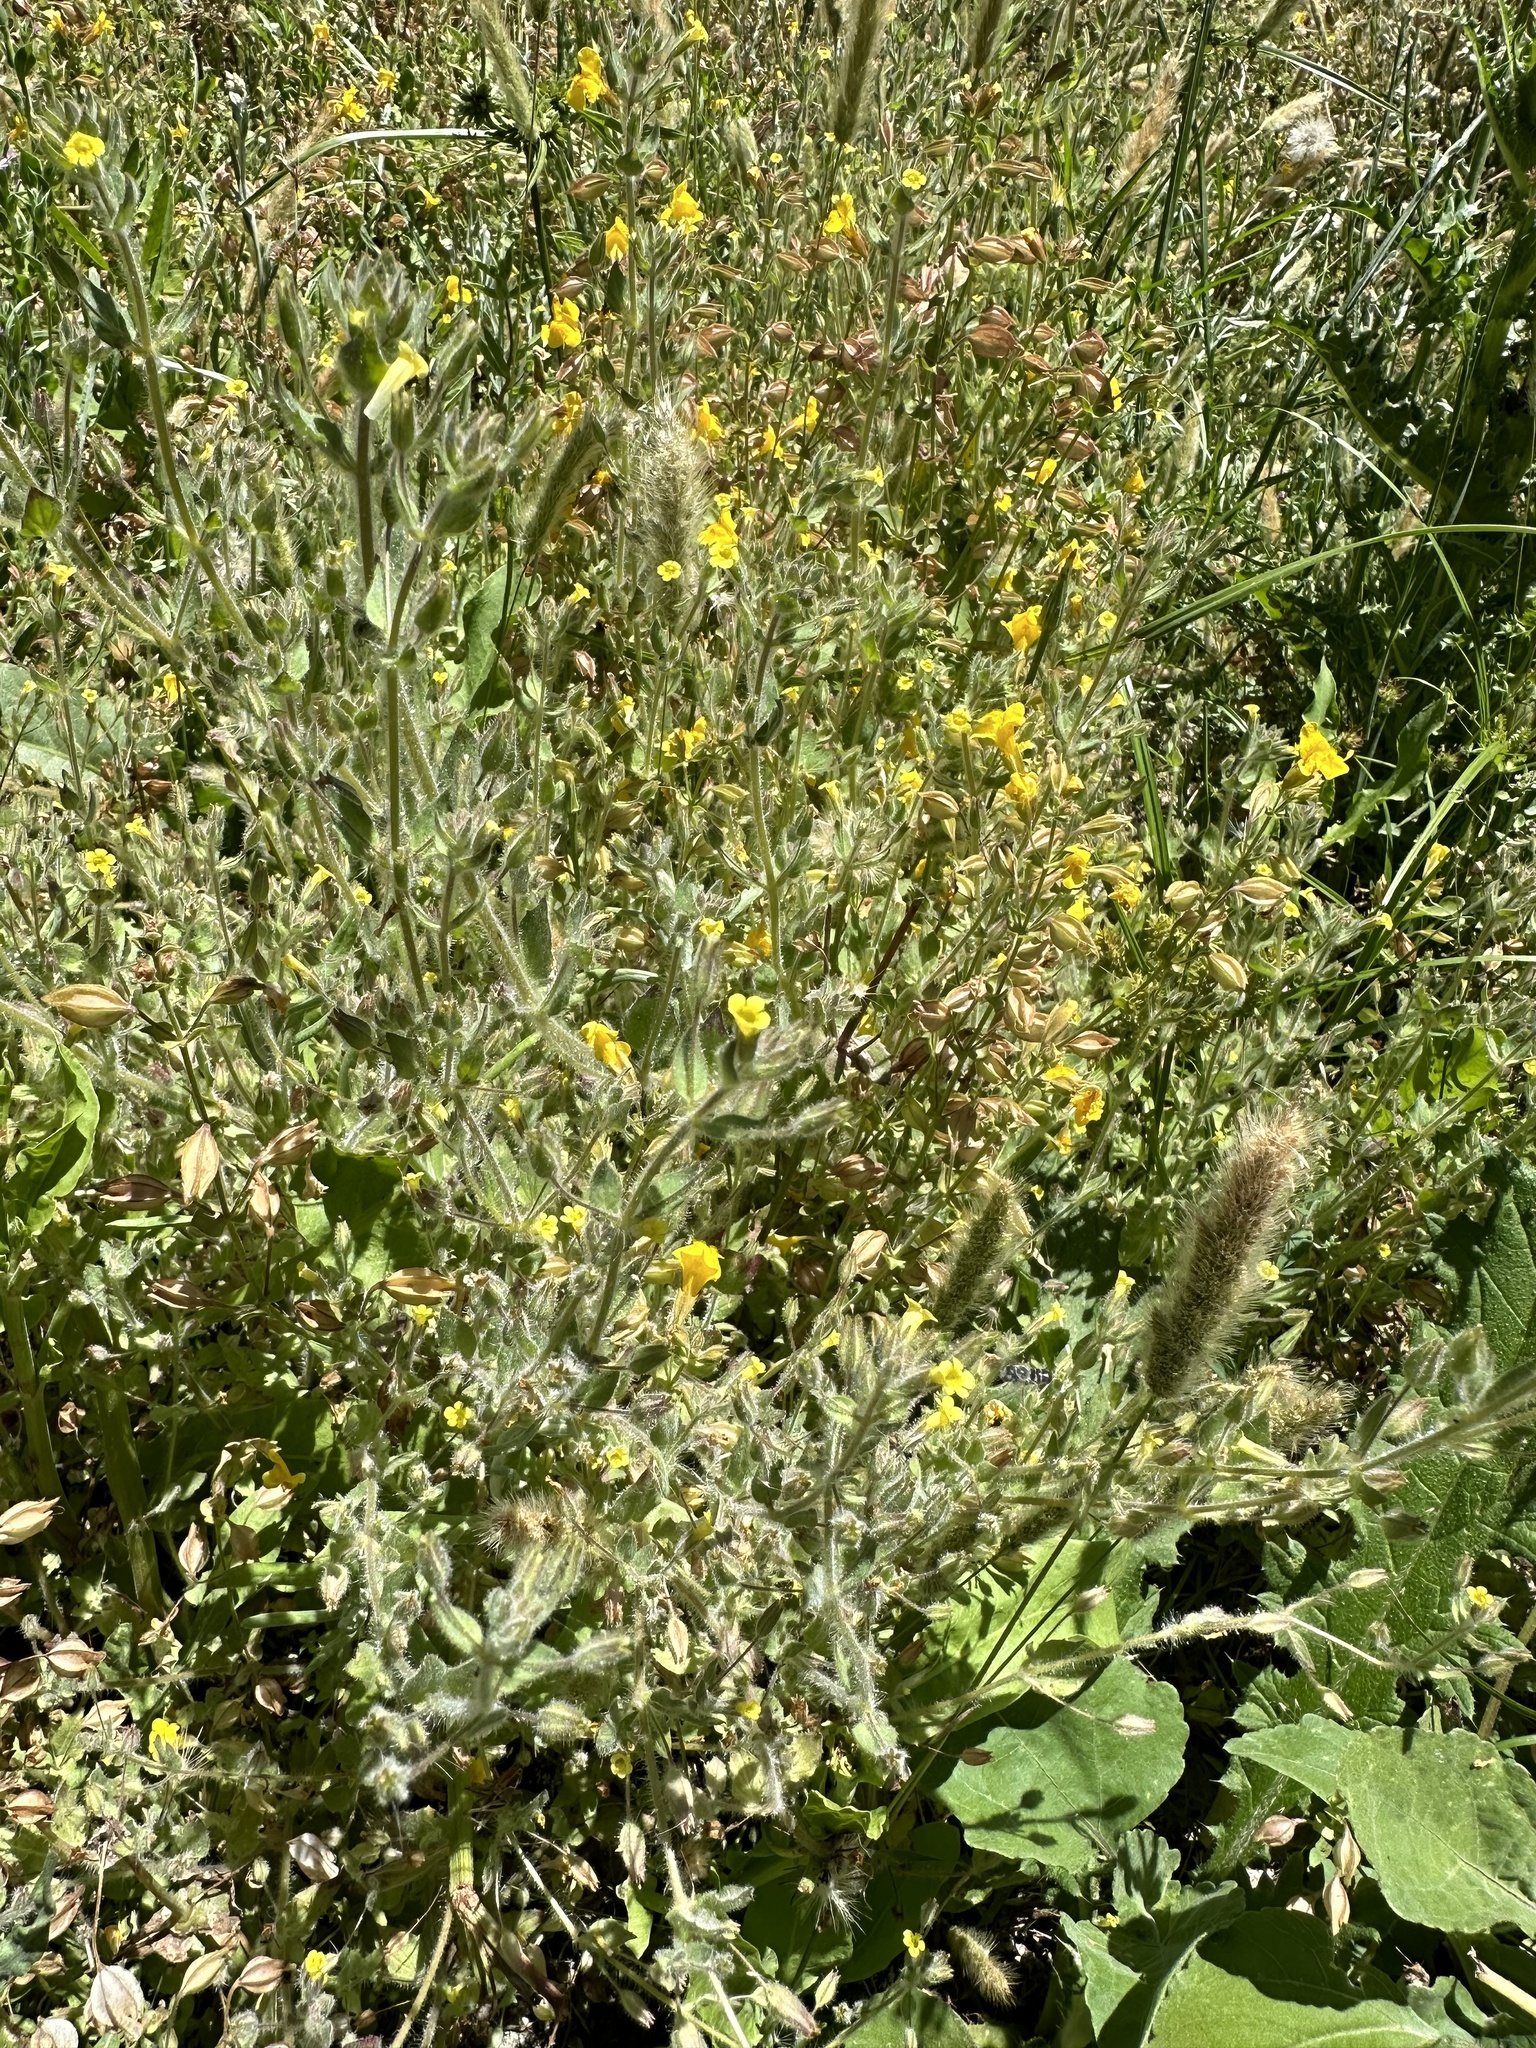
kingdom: Plantae
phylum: Tracheophyta
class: Magnoliopsida
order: Lamiales
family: Phrymaceae
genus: Erythranthe
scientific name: Erythranthe floribunda
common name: Floriferous monkeyflower
